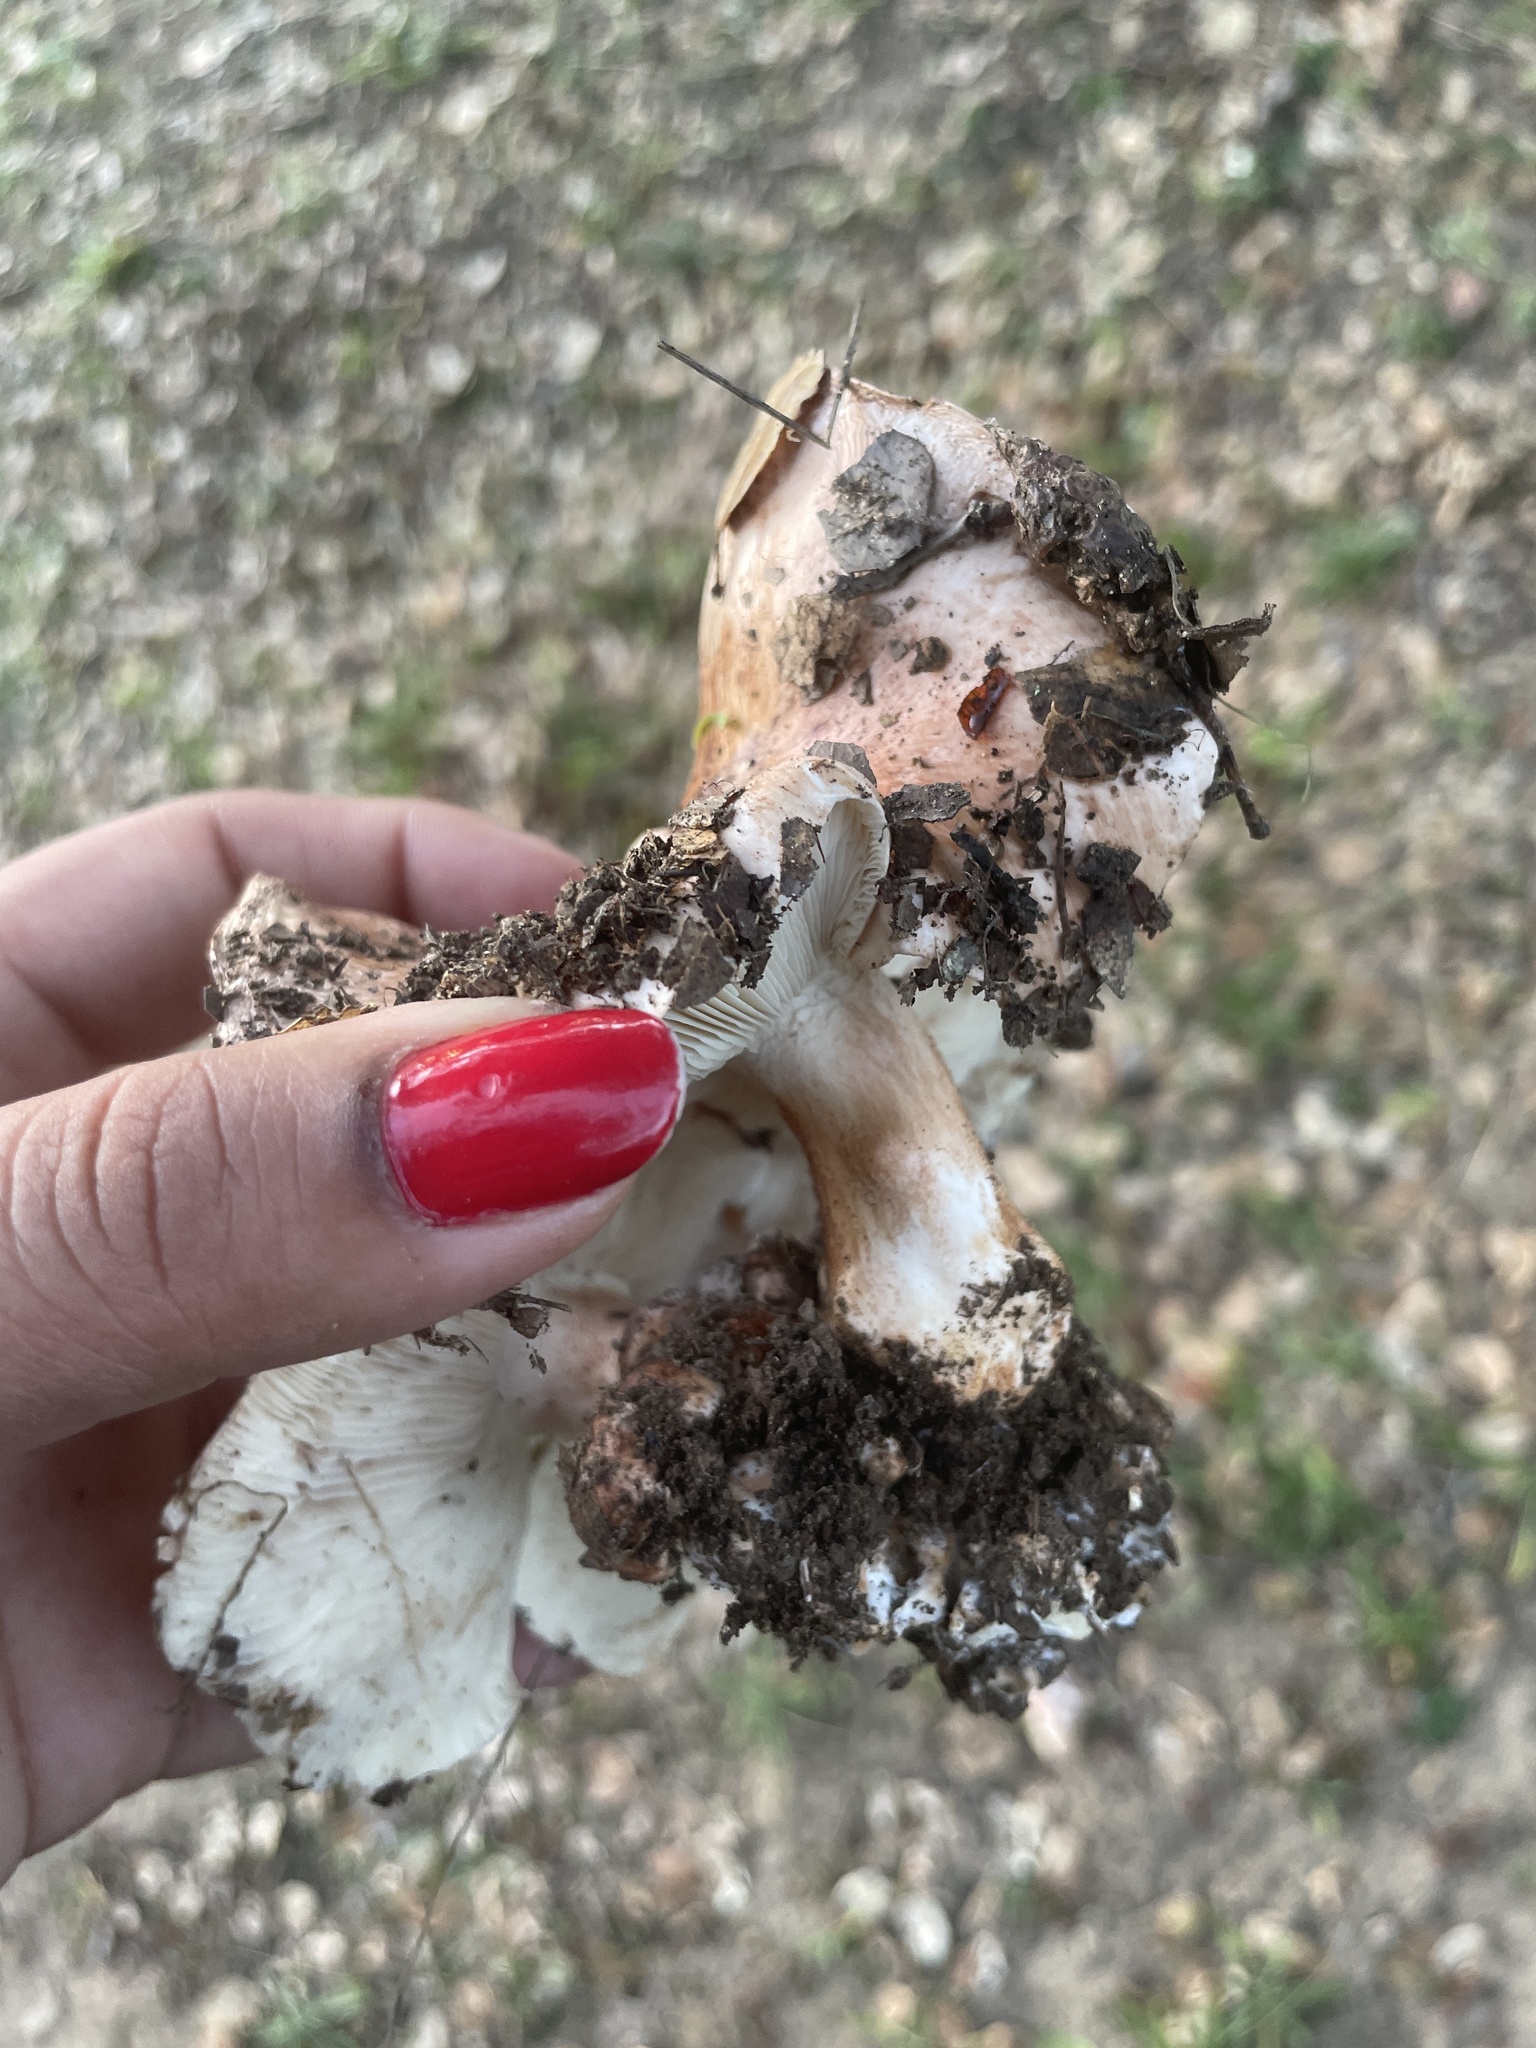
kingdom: Fungi
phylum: Basidiomycota
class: Agaricomycetes
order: Agaricales
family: Tricholomataceae
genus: Melanoleuca
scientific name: Melanoleuca dryophila
